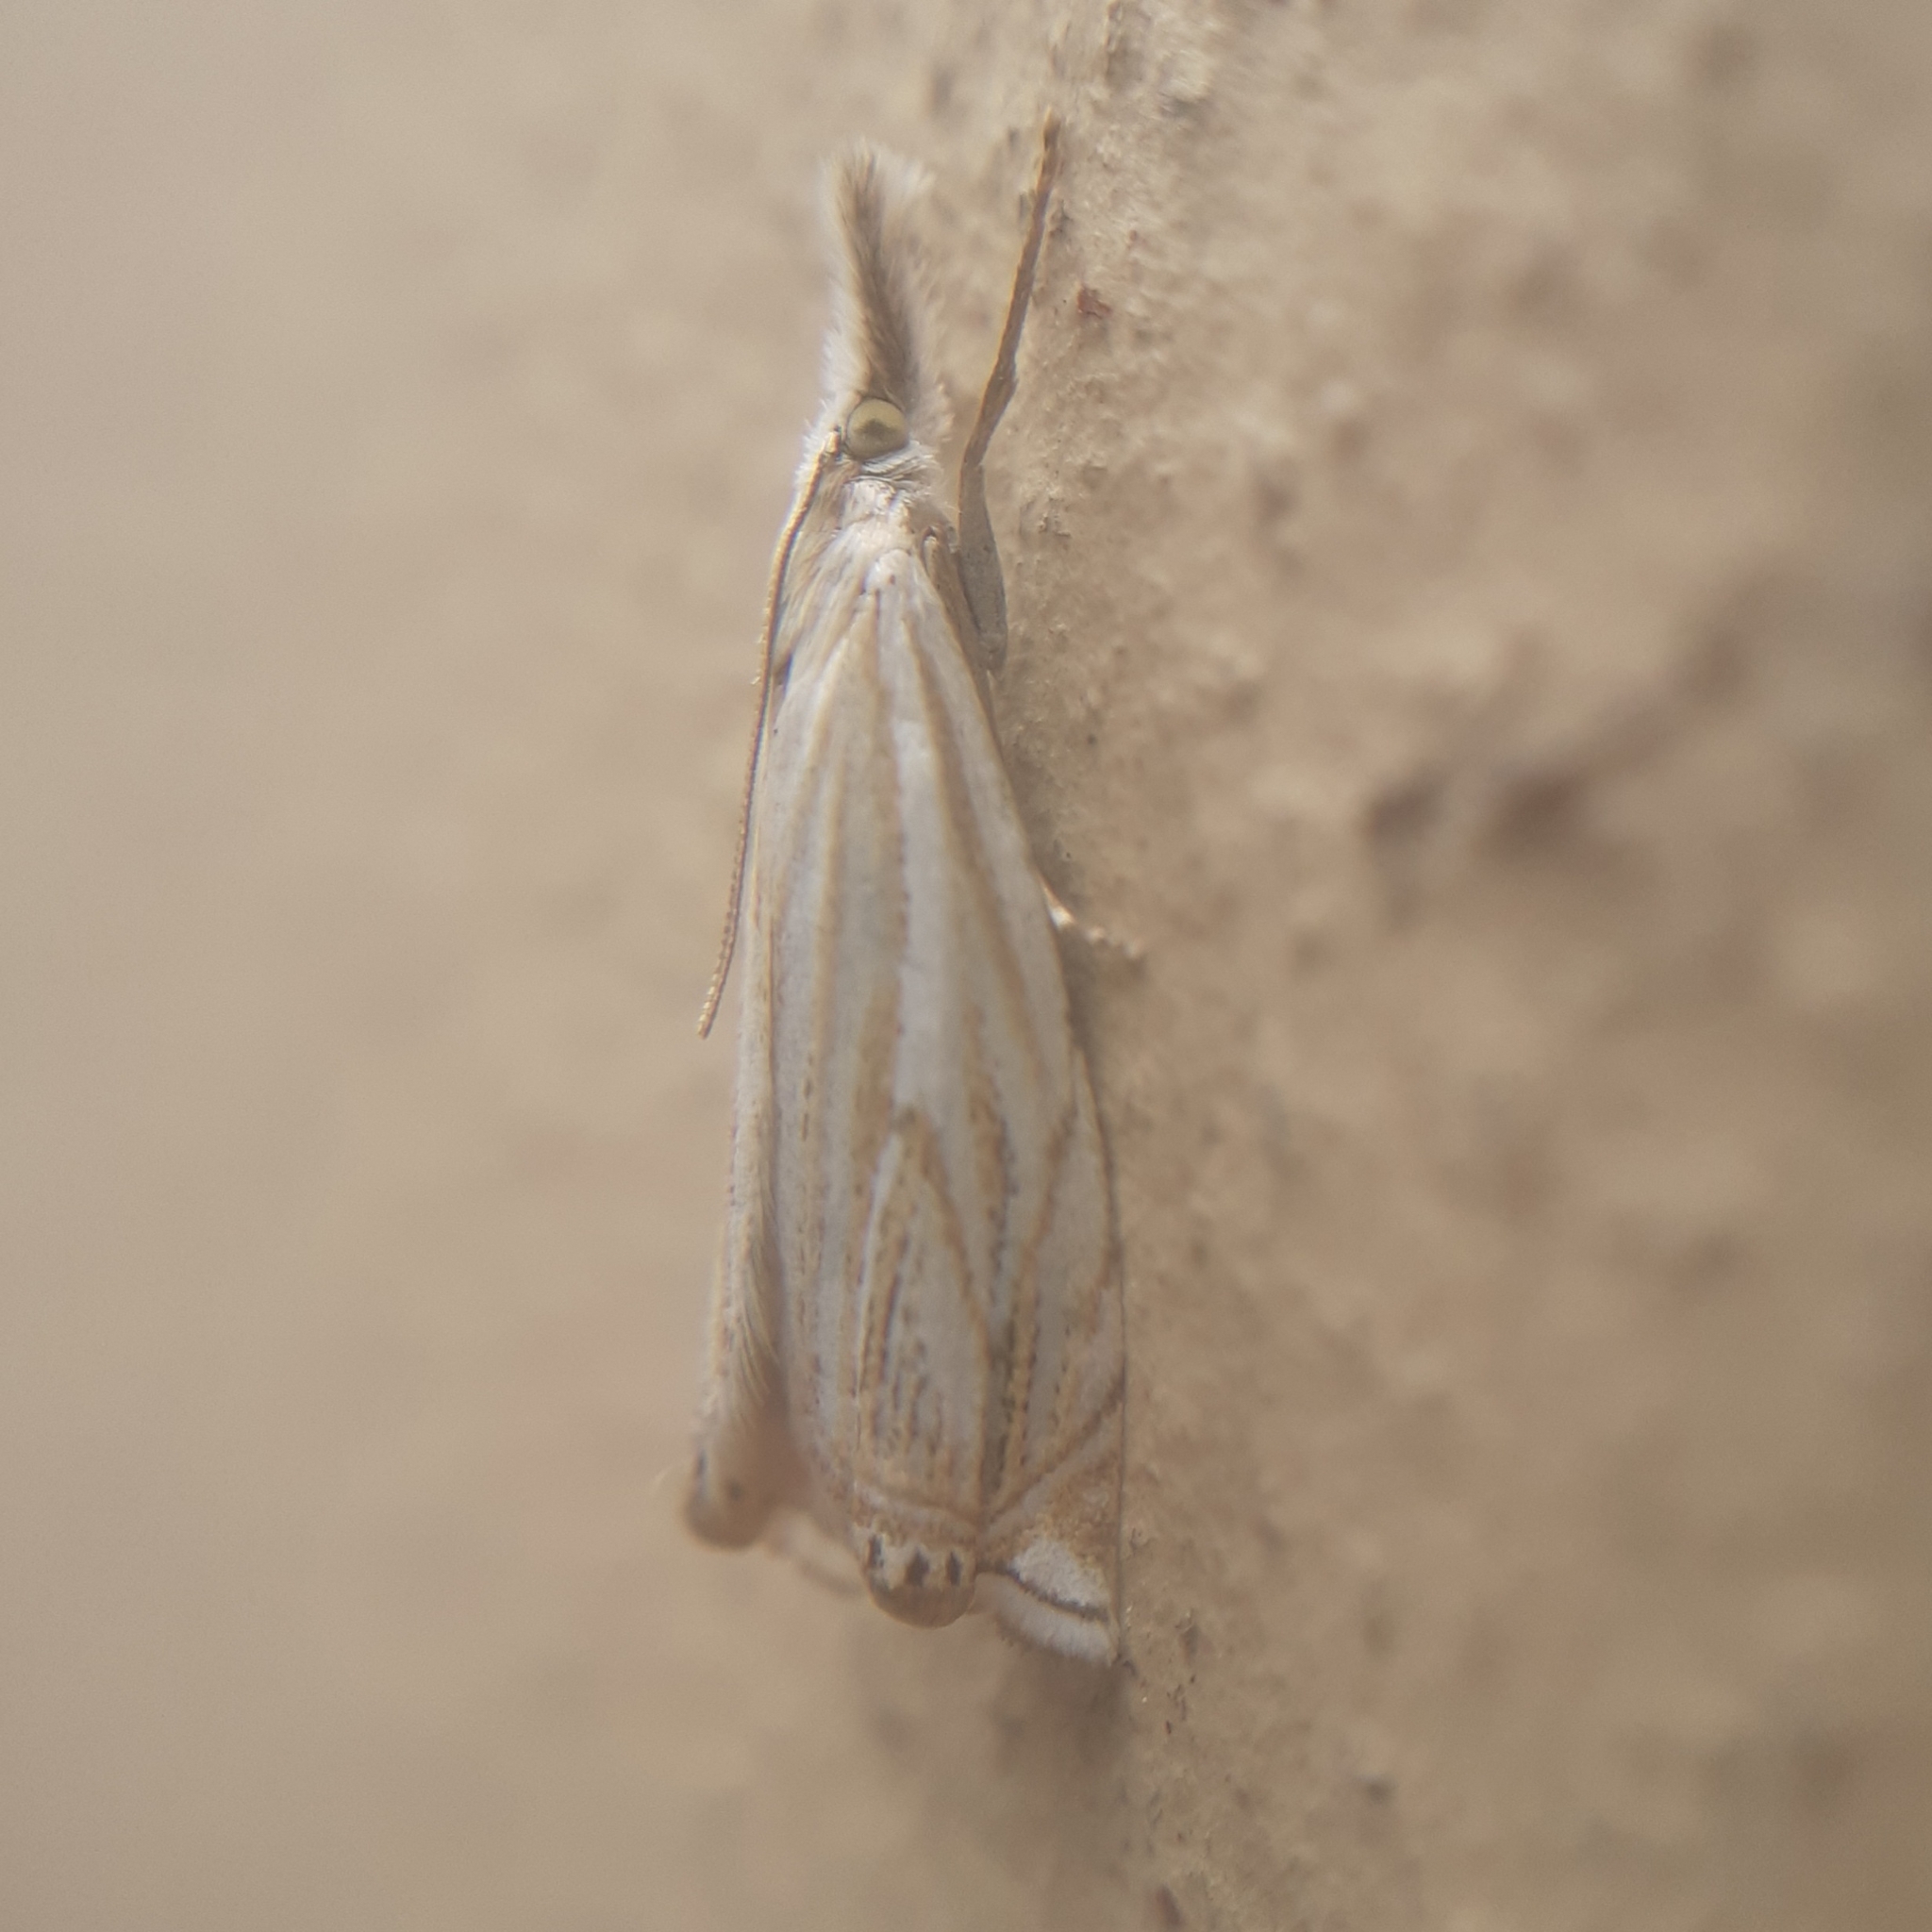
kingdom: Animalia
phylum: Arthropoda
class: Insecta
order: Lepidoptera
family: Crambidae
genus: Crambus
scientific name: Crambus nemorella
